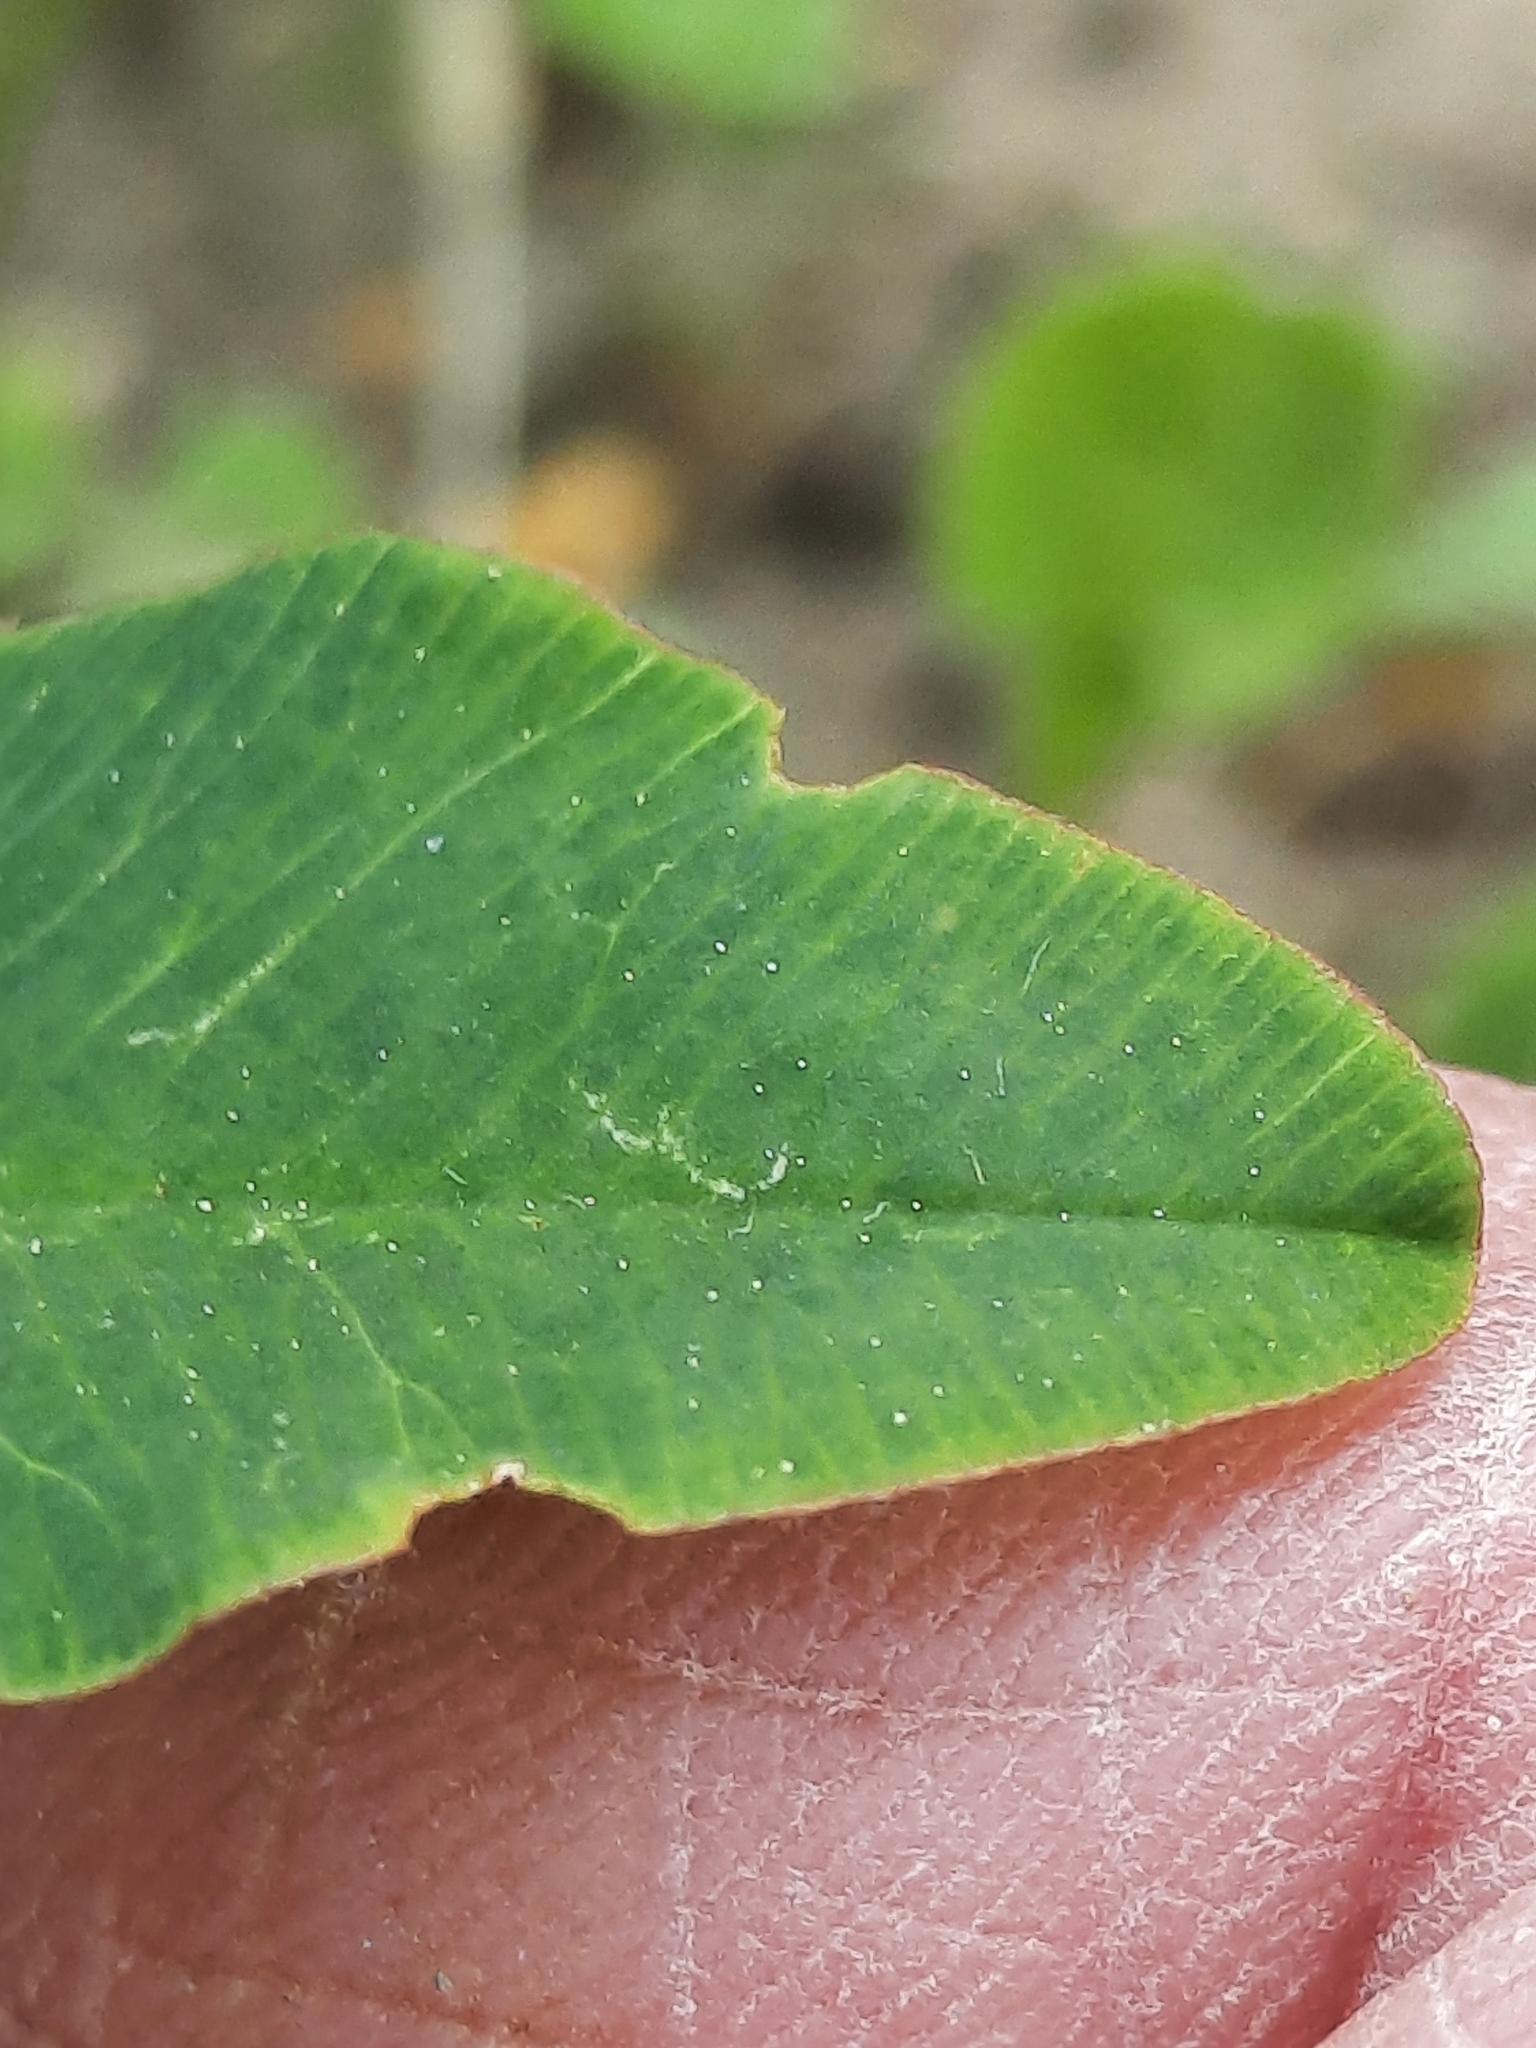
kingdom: Plantae
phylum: Tracheophyta
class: Magnoliopsida
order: Fabales
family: Fabaceae
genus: Trifolium
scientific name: Trifolium hybridum
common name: Alsike clover
